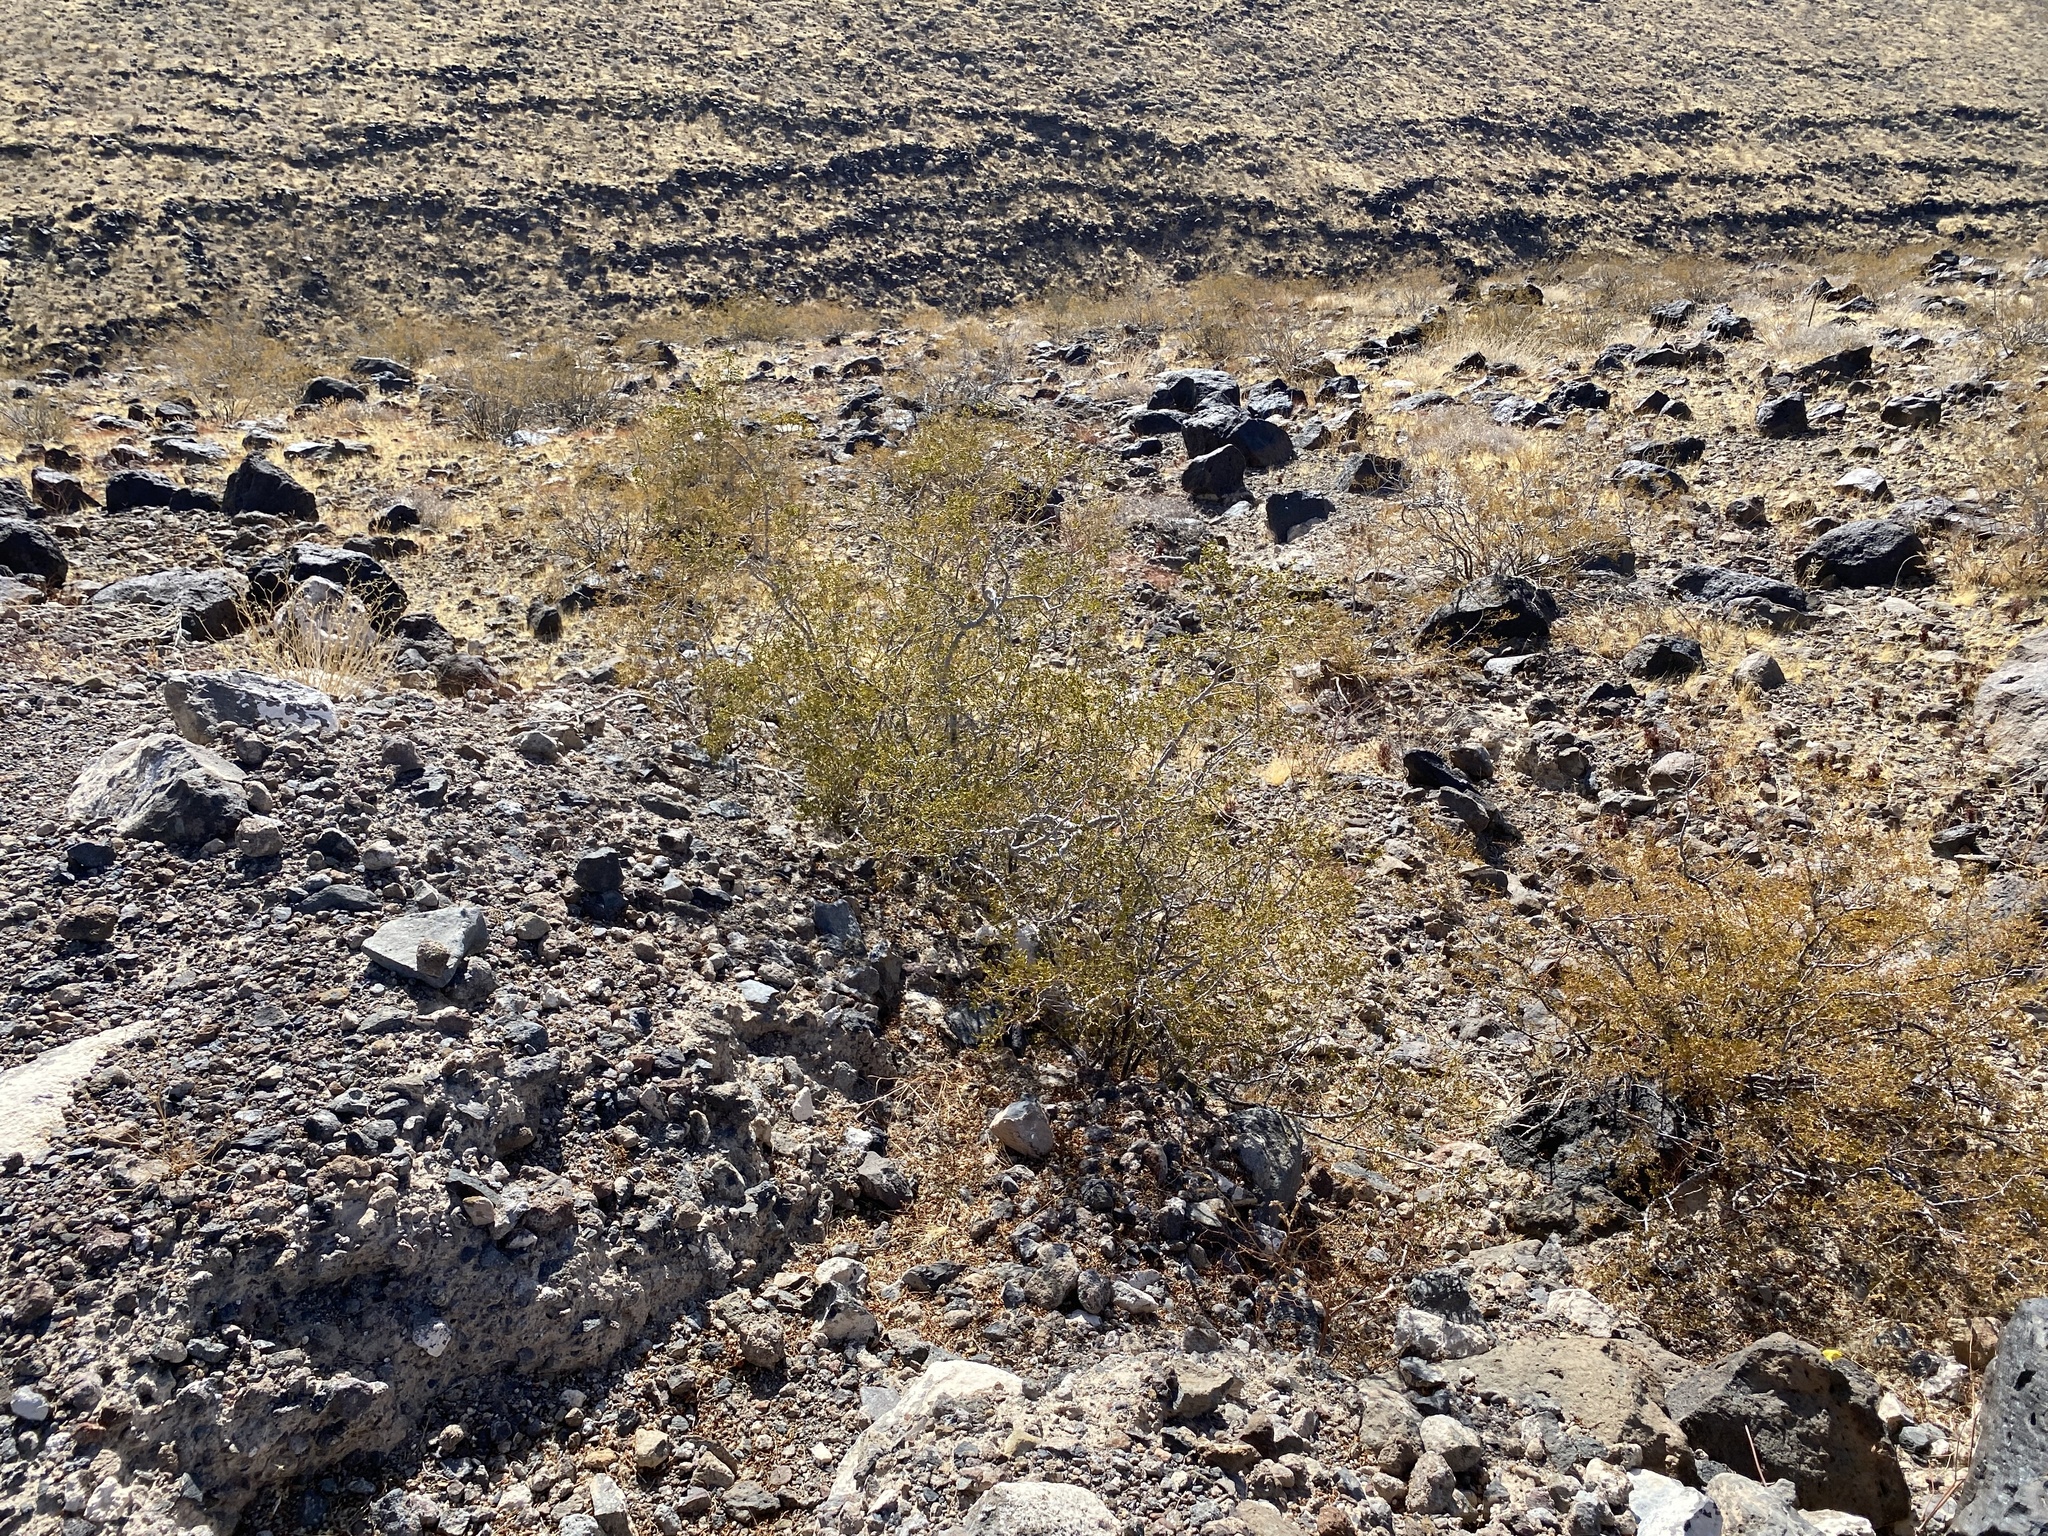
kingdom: Plantae
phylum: Tracheophyta
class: Magnoliopsida
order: Zygophyllales
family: Zygophyllaceae
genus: Larrea
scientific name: Larrea tridentata
